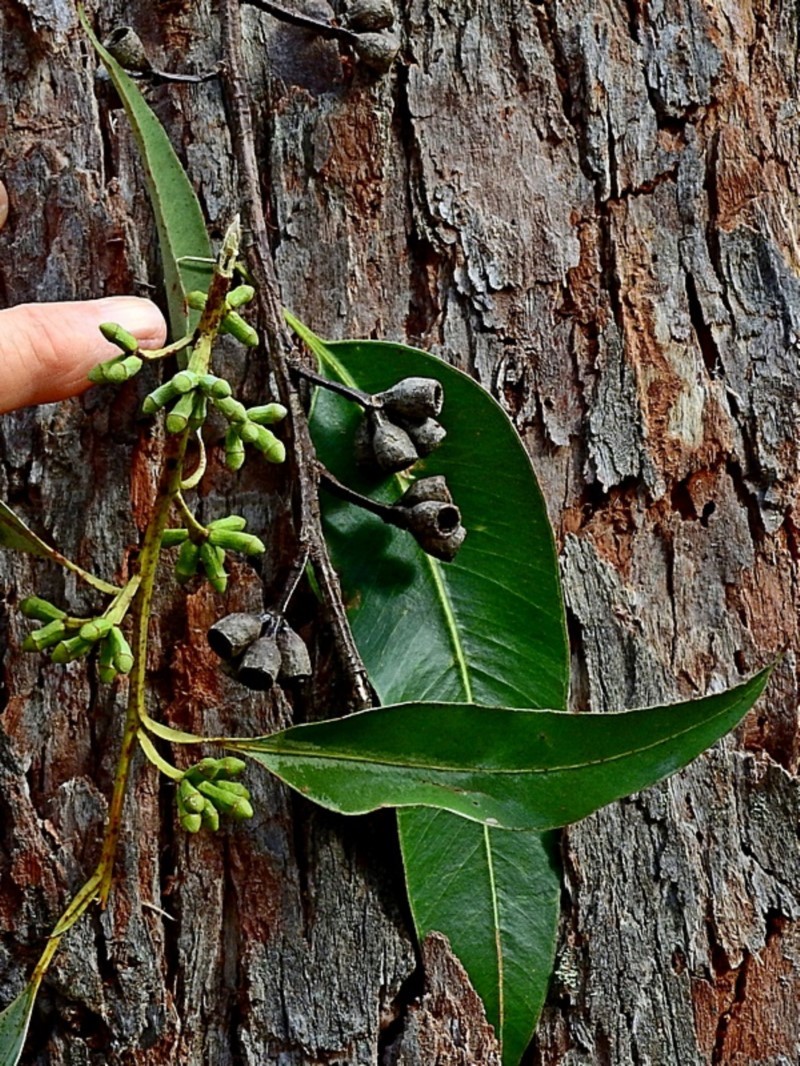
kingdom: Plantae
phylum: Tracheophyta
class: Magnoliopsida
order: Myrtales
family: Myrtaceae
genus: Eucalyptus
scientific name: Eucalyptus botryoides
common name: Bangalay
